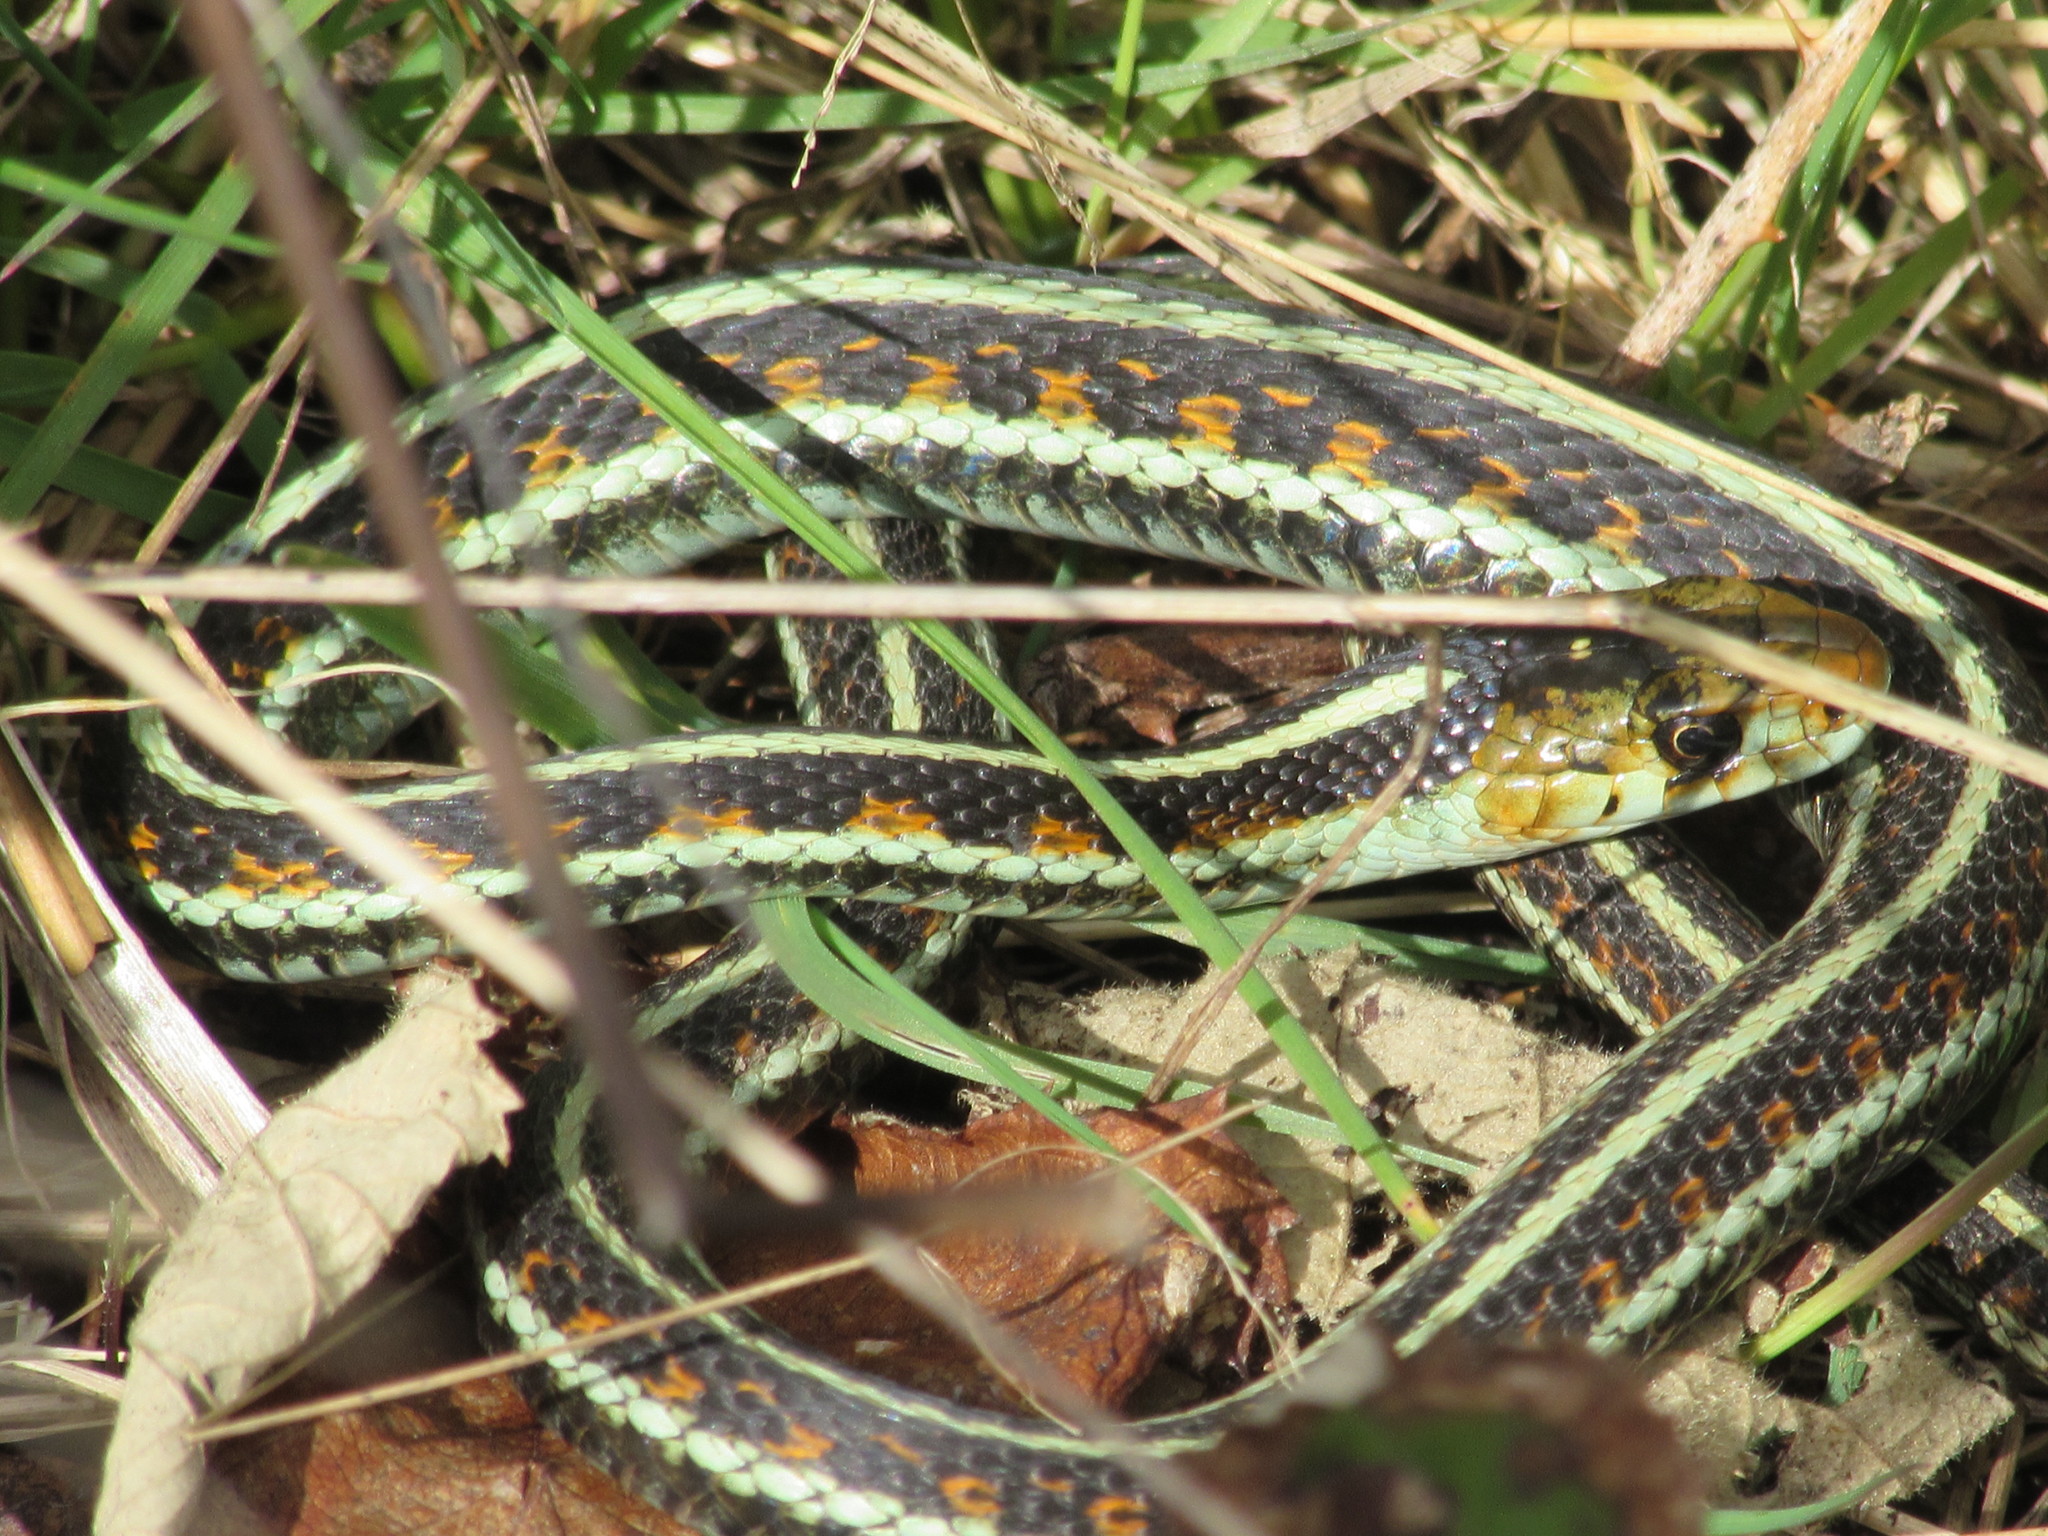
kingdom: Animalia
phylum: Chordata
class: Squamata
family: Colubridae
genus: Thamnophis
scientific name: Thamnophis sirtalis
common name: Common garter snake
